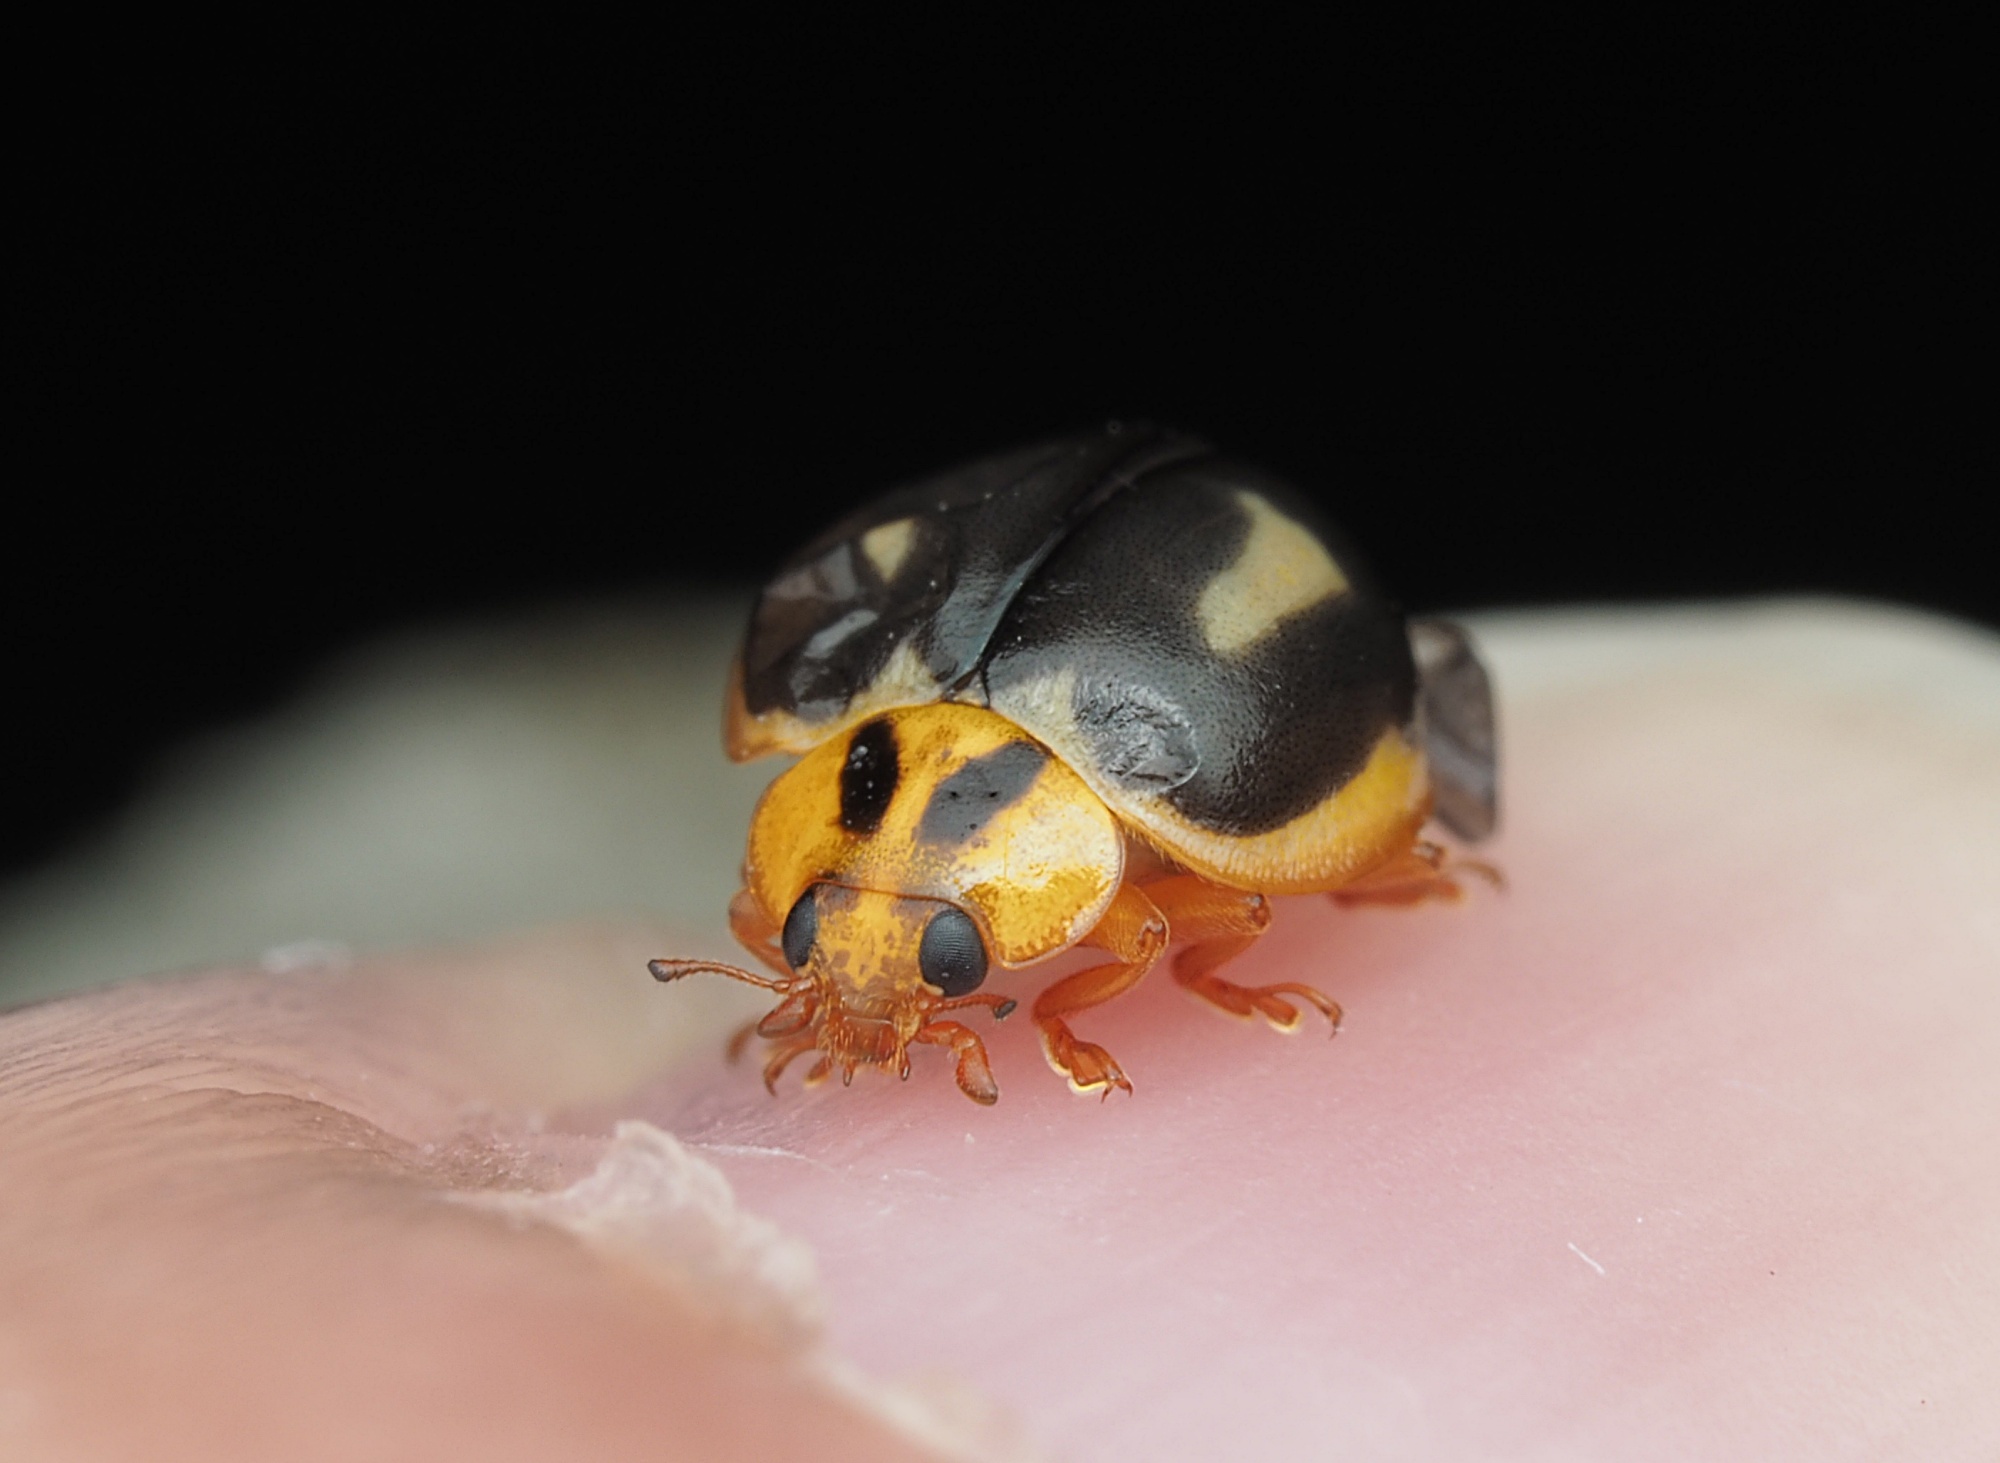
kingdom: Animalia
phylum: Arthropoda
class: Insecta
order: Coleoptera
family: Coccinellidae
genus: Harmonia
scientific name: Harmonia
